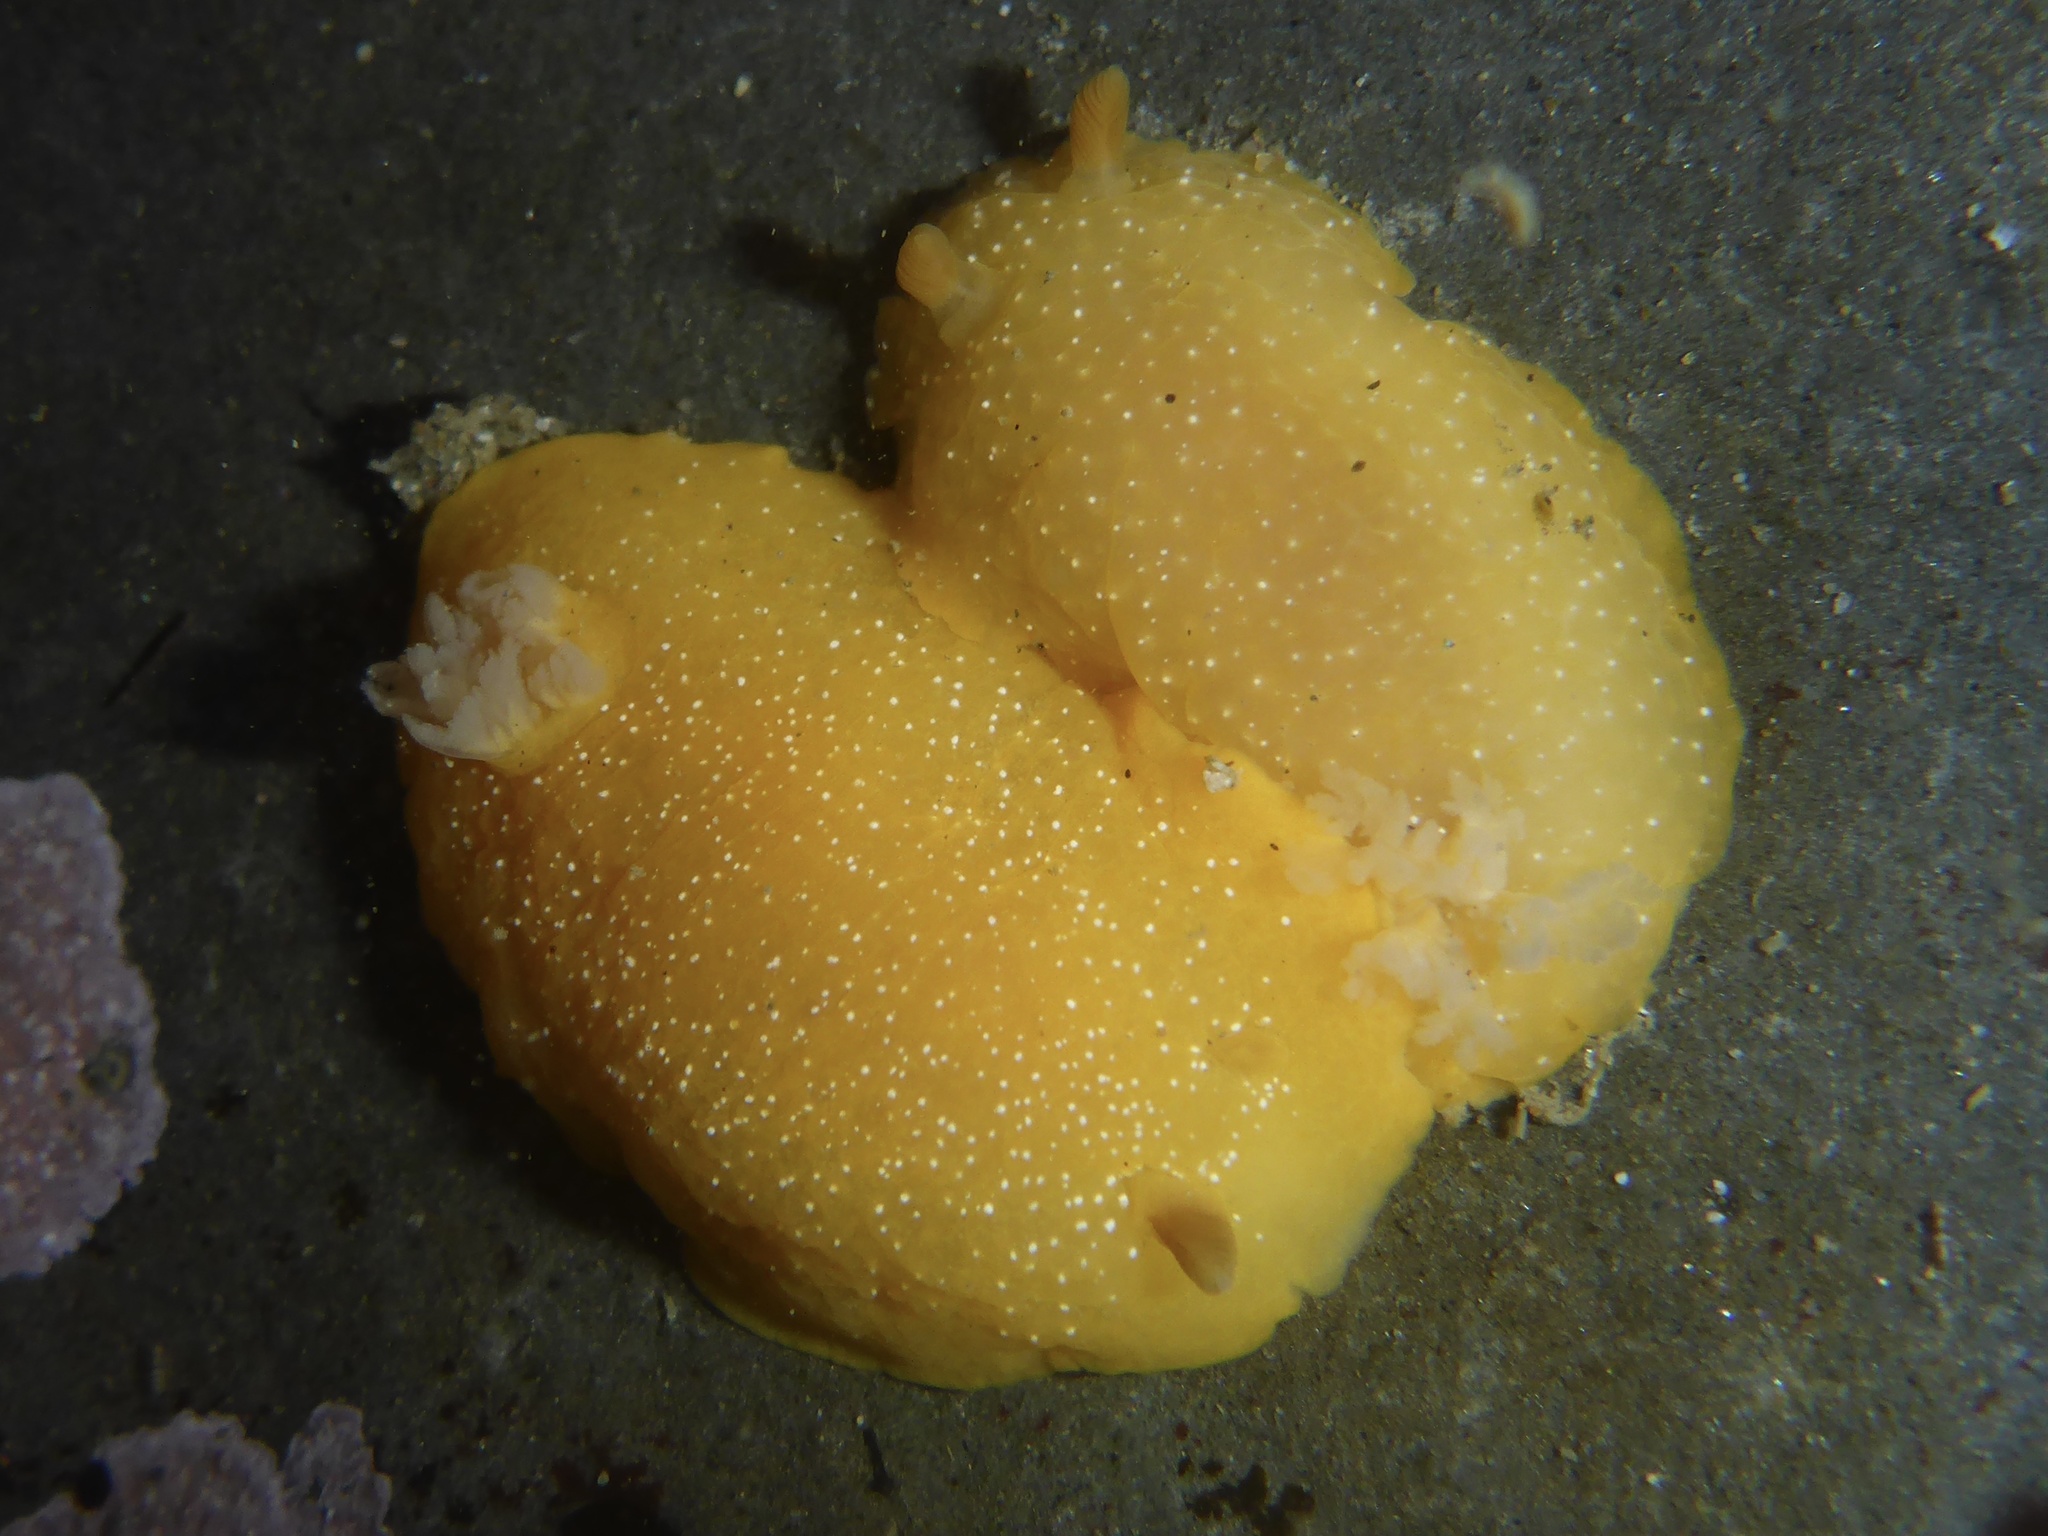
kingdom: Animalia
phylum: Mollusca
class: Gastropoda
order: Nudibranchia
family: Dendrodorididae
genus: Doriopsilla
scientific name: Doriopsilla fulva
